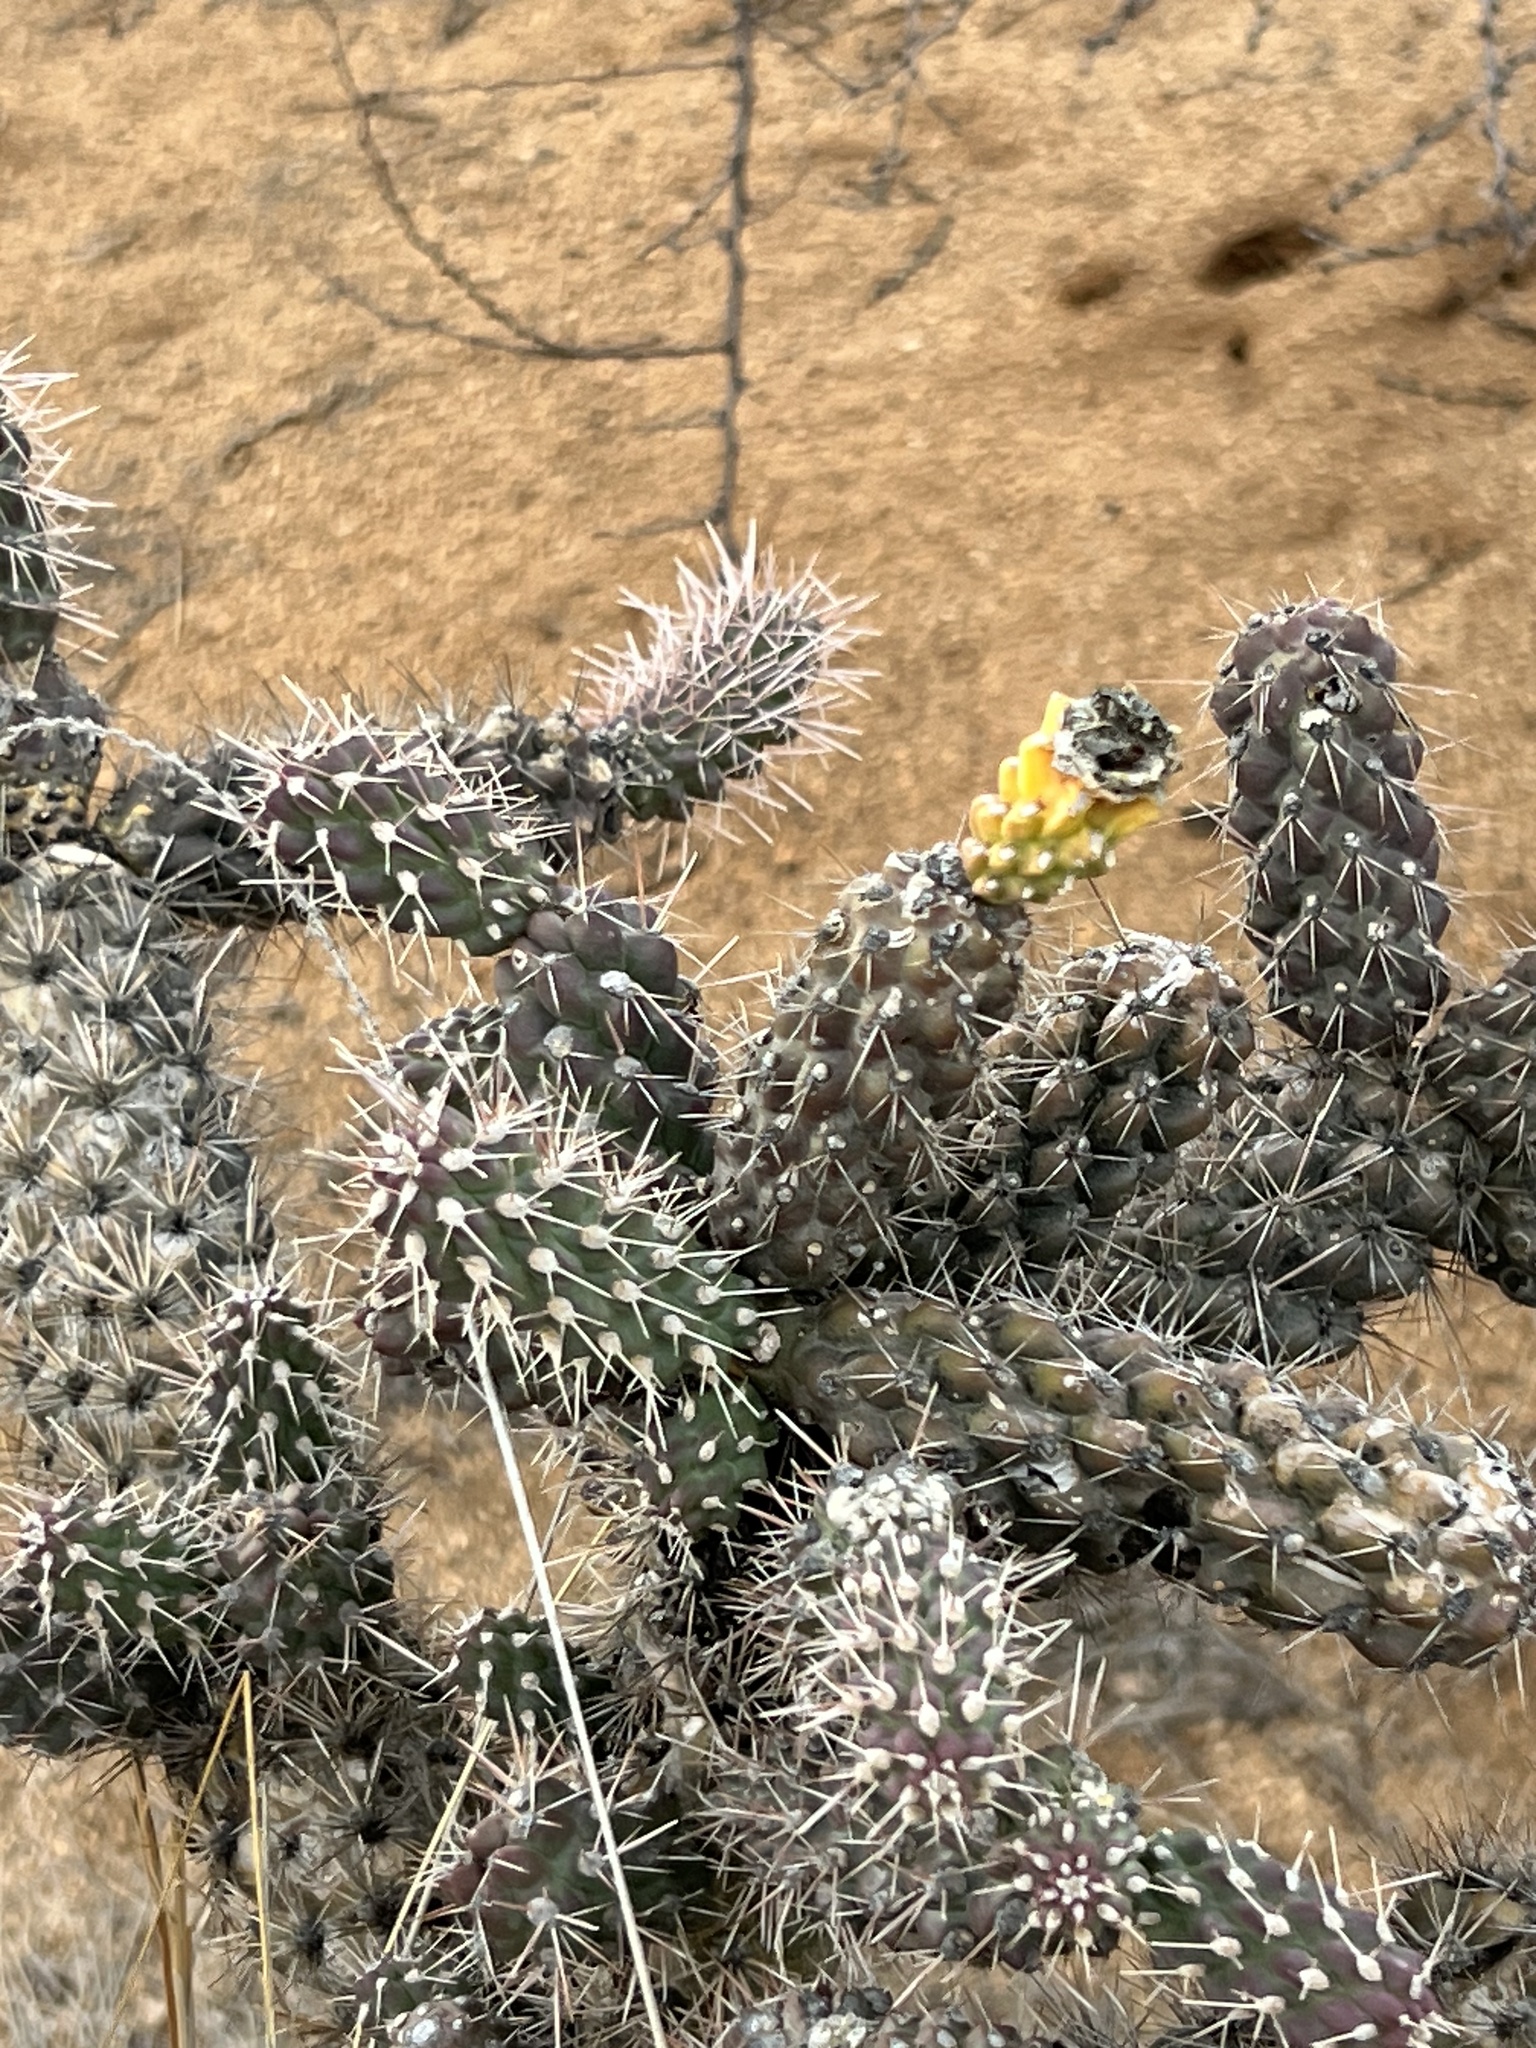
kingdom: Plantae
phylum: Tracheophyta
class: Magnoliopsida
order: Caryophyllales
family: Cactaceae
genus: Cylindropuntia
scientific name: Cylindropuntia imbricata
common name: Candelabrum cactus
